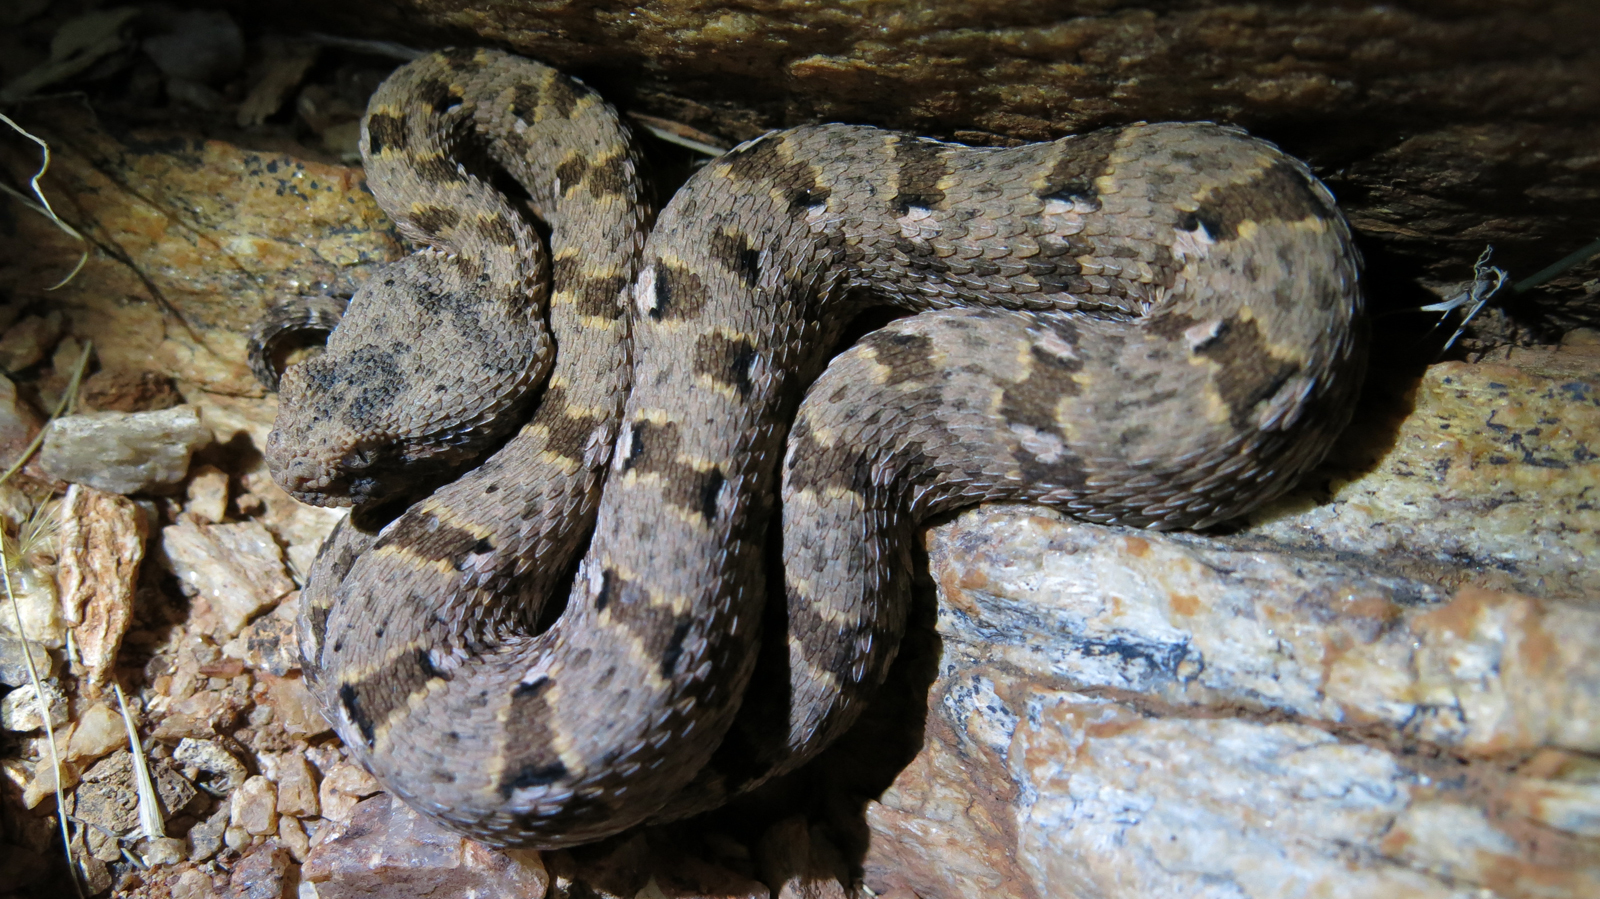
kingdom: Animalia
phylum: Chordata
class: Squamata
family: Viperidae
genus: Bitis
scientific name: Bitis xeropaga
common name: Desert mountain adder
